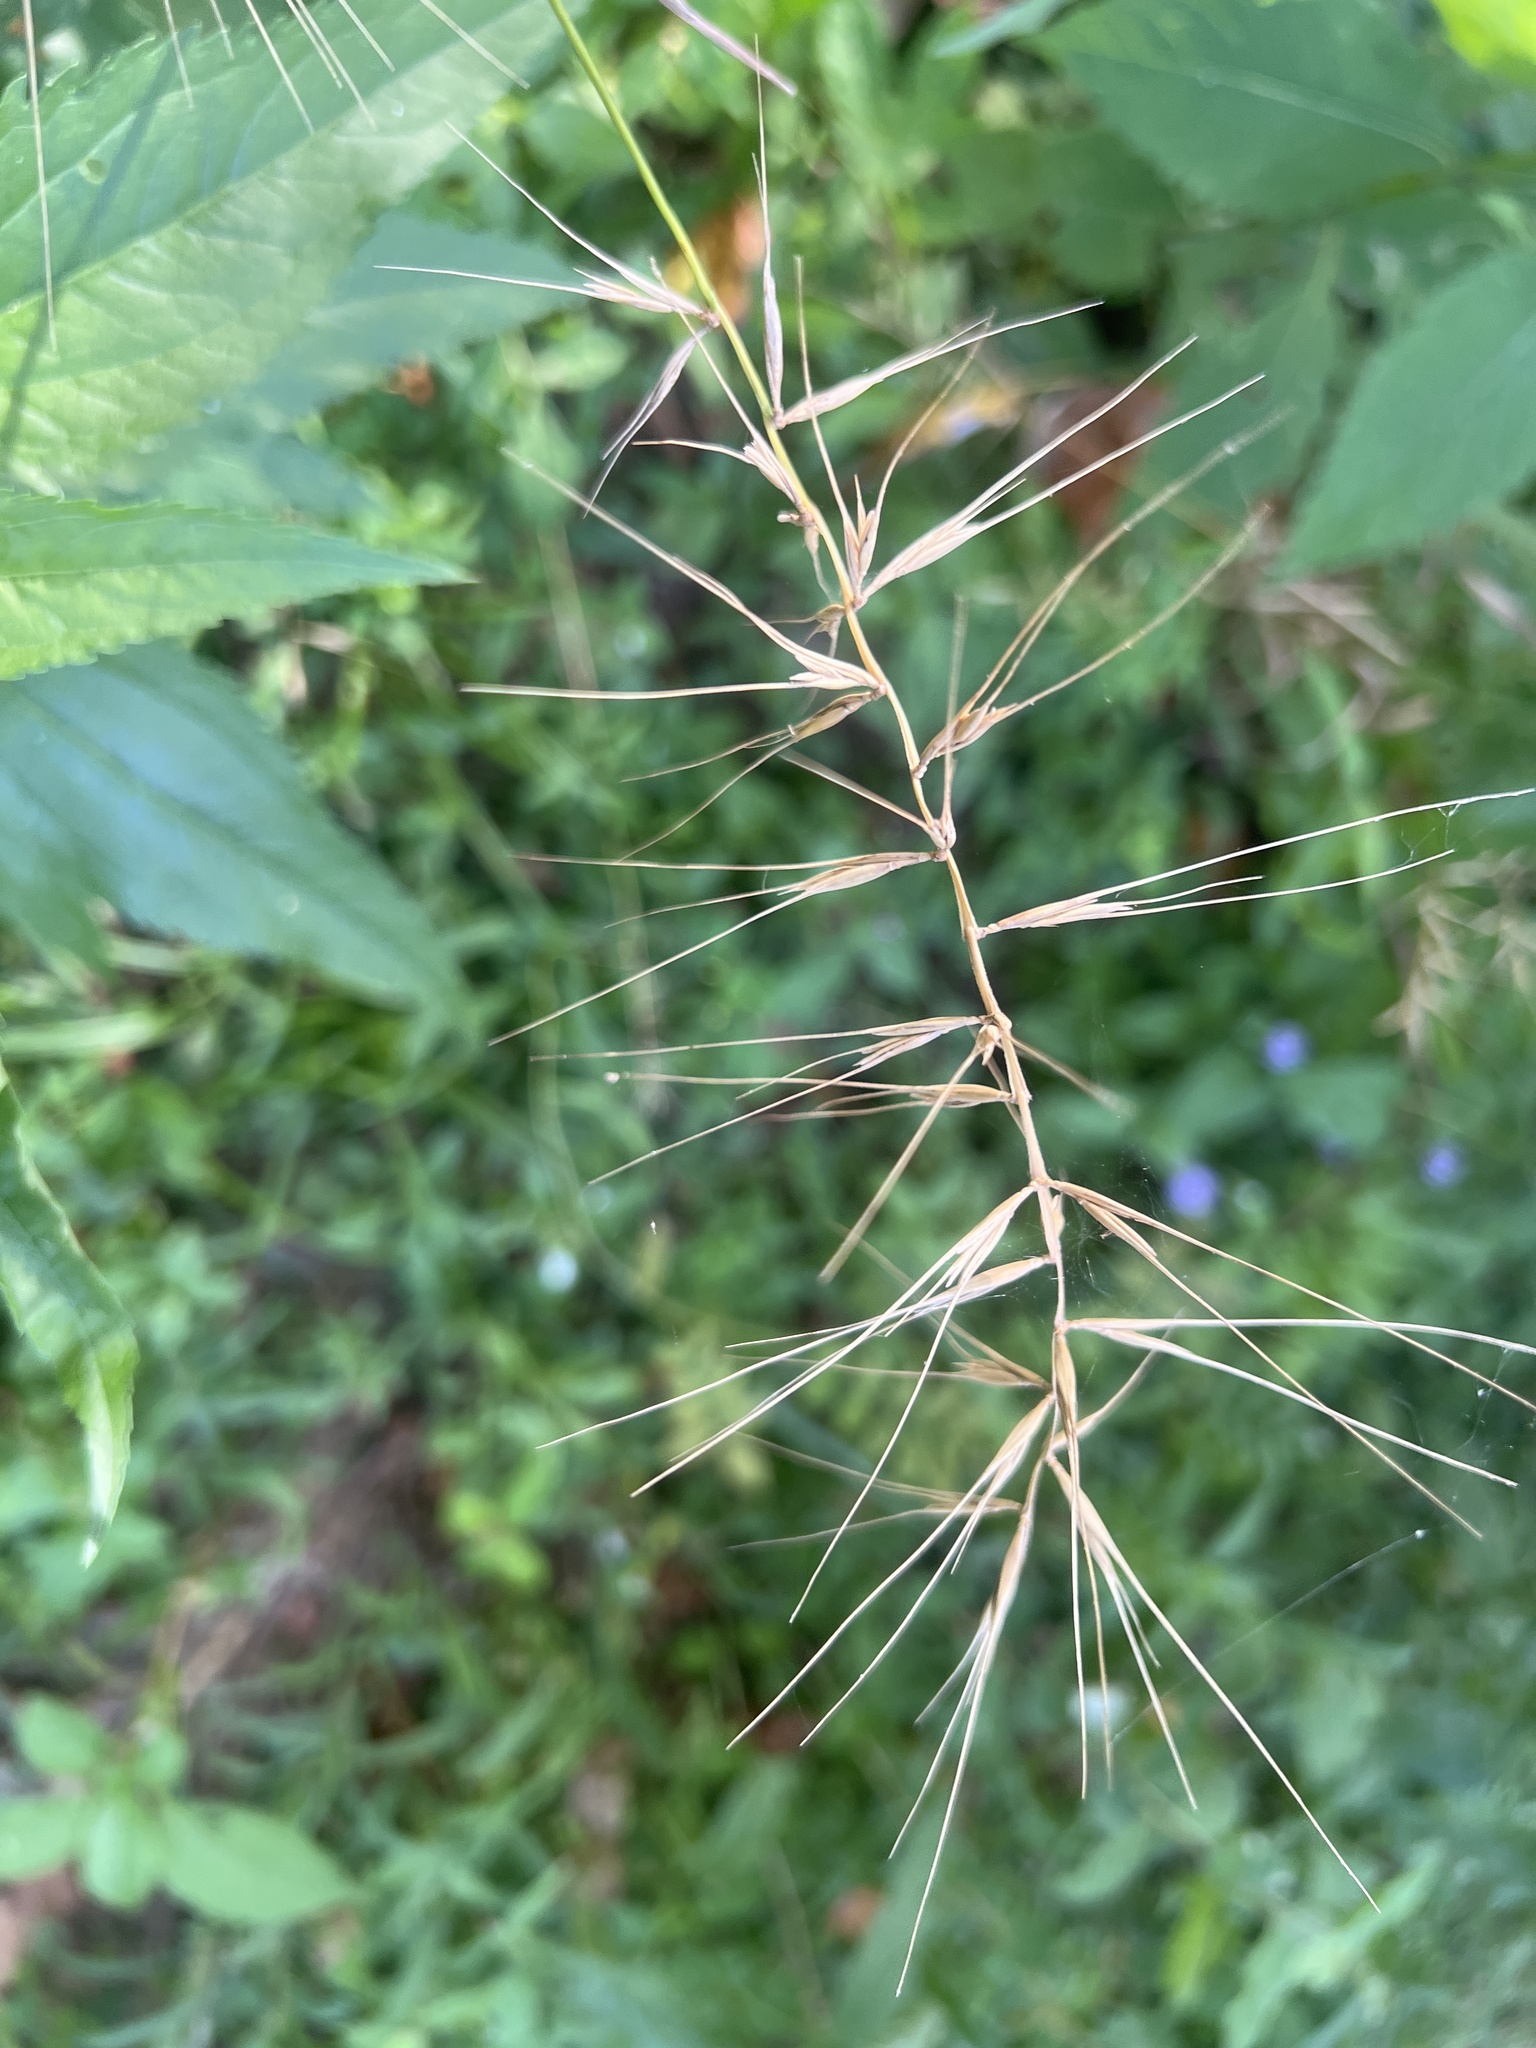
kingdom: Plantae
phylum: Tracheophyta
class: Liliopsida
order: Poales
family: Poaceae
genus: Elymus
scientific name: Elymus hystrix
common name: Bottlebrush grass
